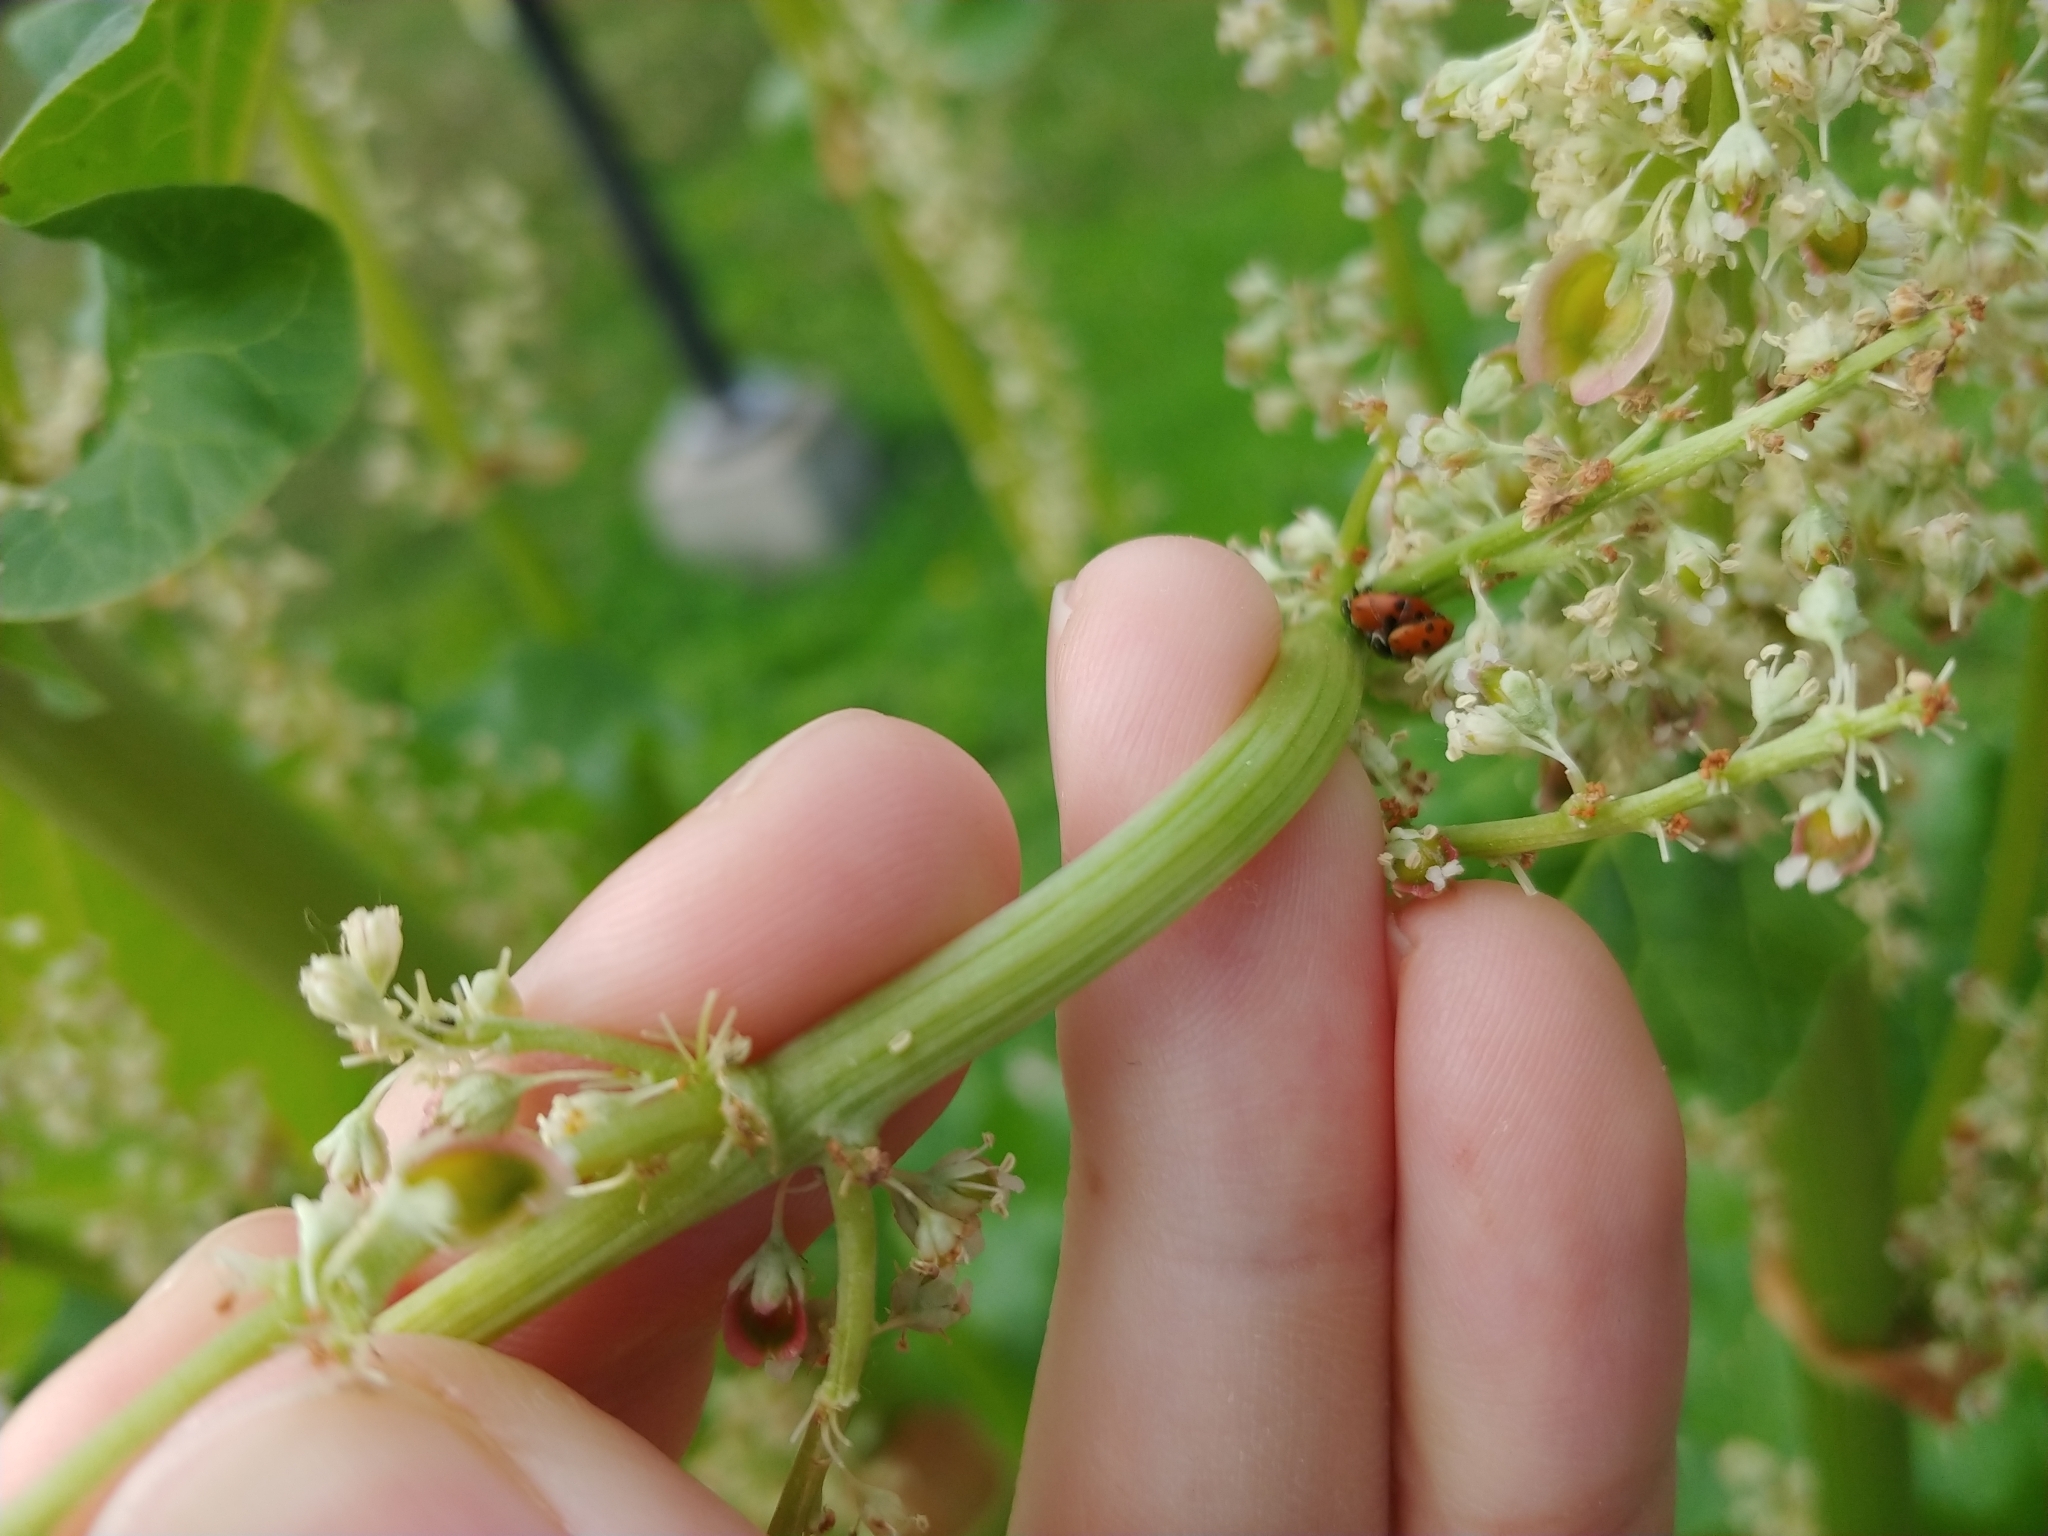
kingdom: Animalia
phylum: Arthropoda
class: Insecta
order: Coleoptera
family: Coccinellidae
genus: Hippodamia
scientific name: Hippodamia variegata
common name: Ladybird beetle
